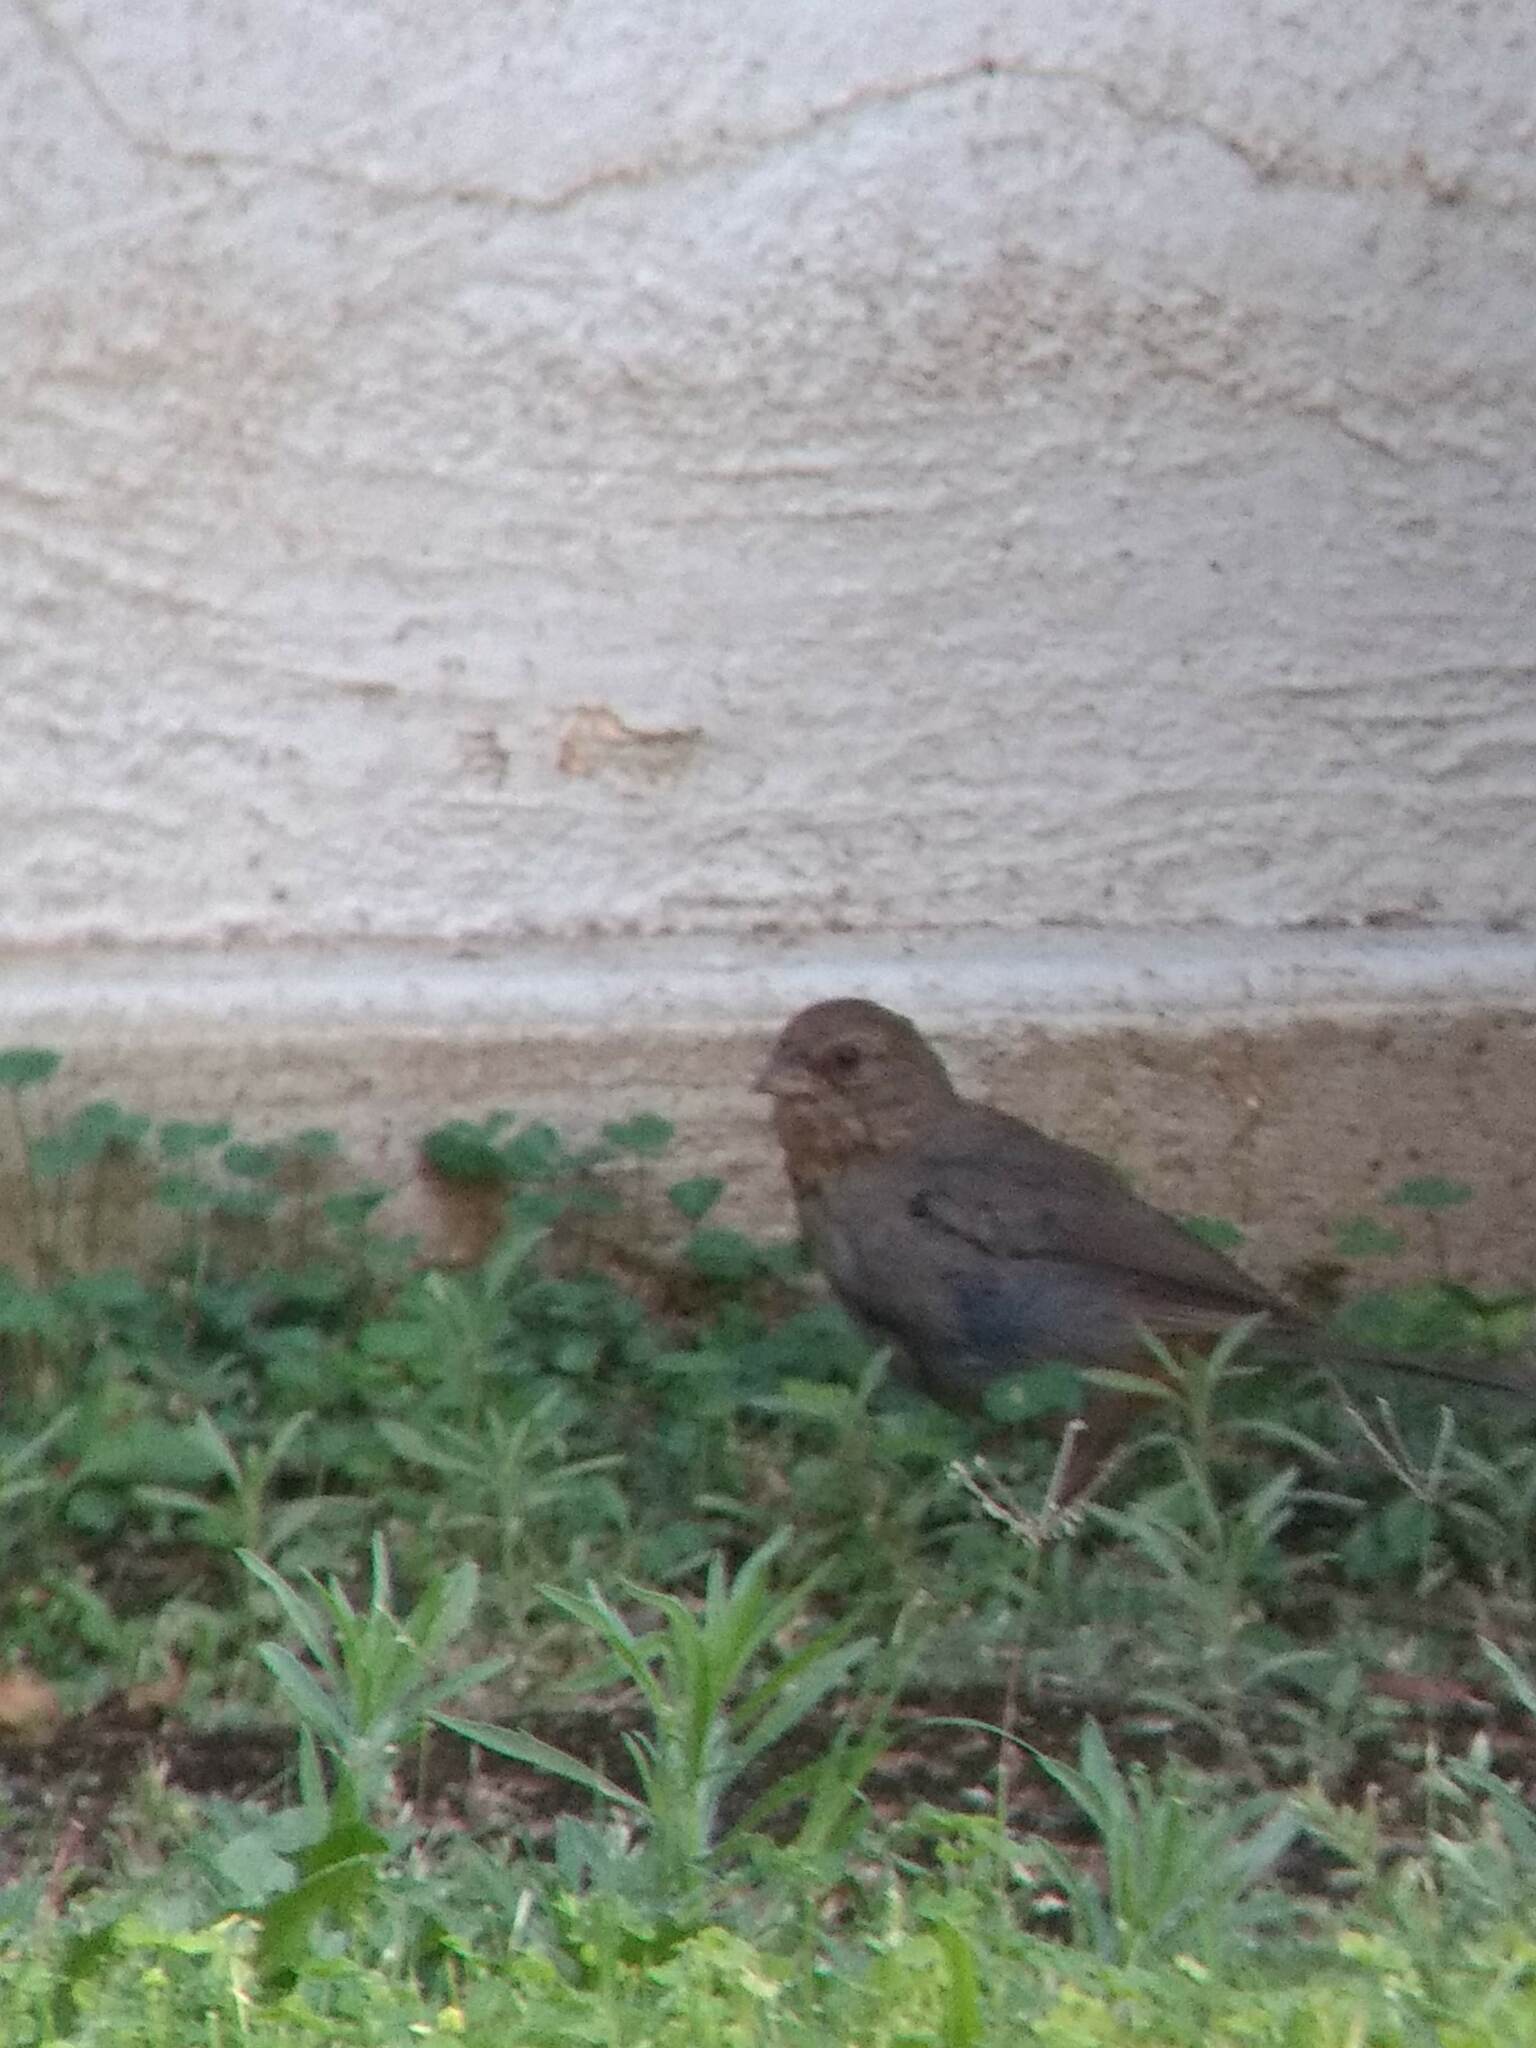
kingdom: Animalia
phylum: Chordata
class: Aves
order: Passeriformes
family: Passerellidae
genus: Melozone
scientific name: Melozone crissalis
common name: California towhee
